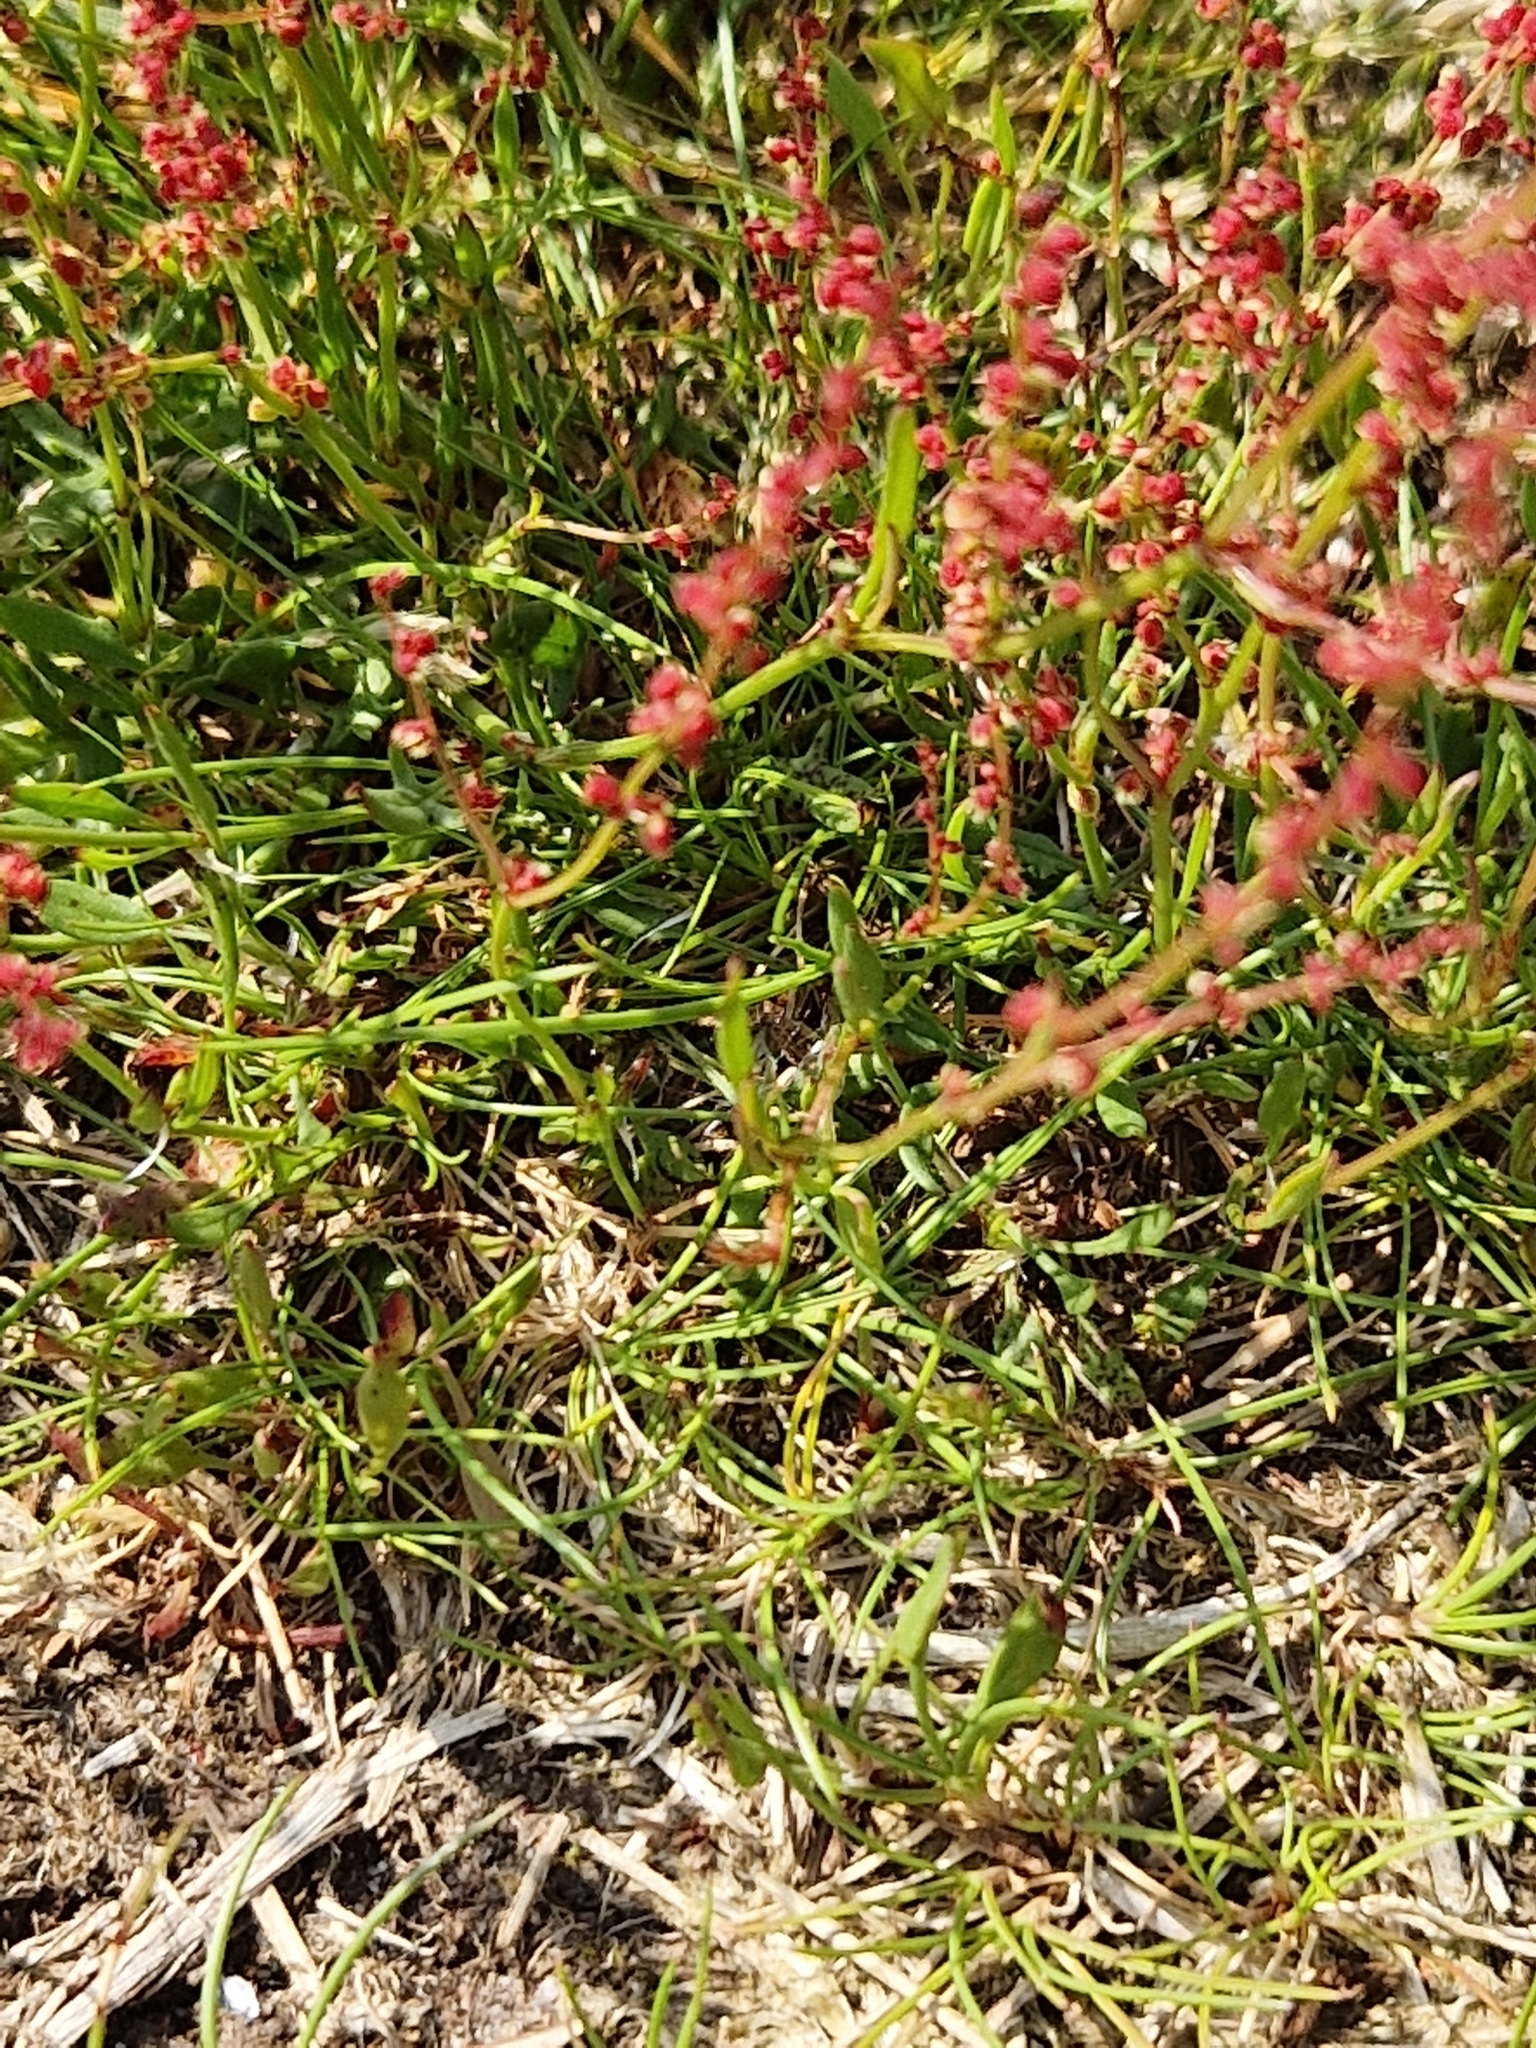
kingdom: Plantae
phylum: Tracheophyta
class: Magnoliopsida
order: Caryophyllales
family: Polygonaceae
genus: Rumex
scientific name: Rumex acetosella
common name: Common sheep sorrel
